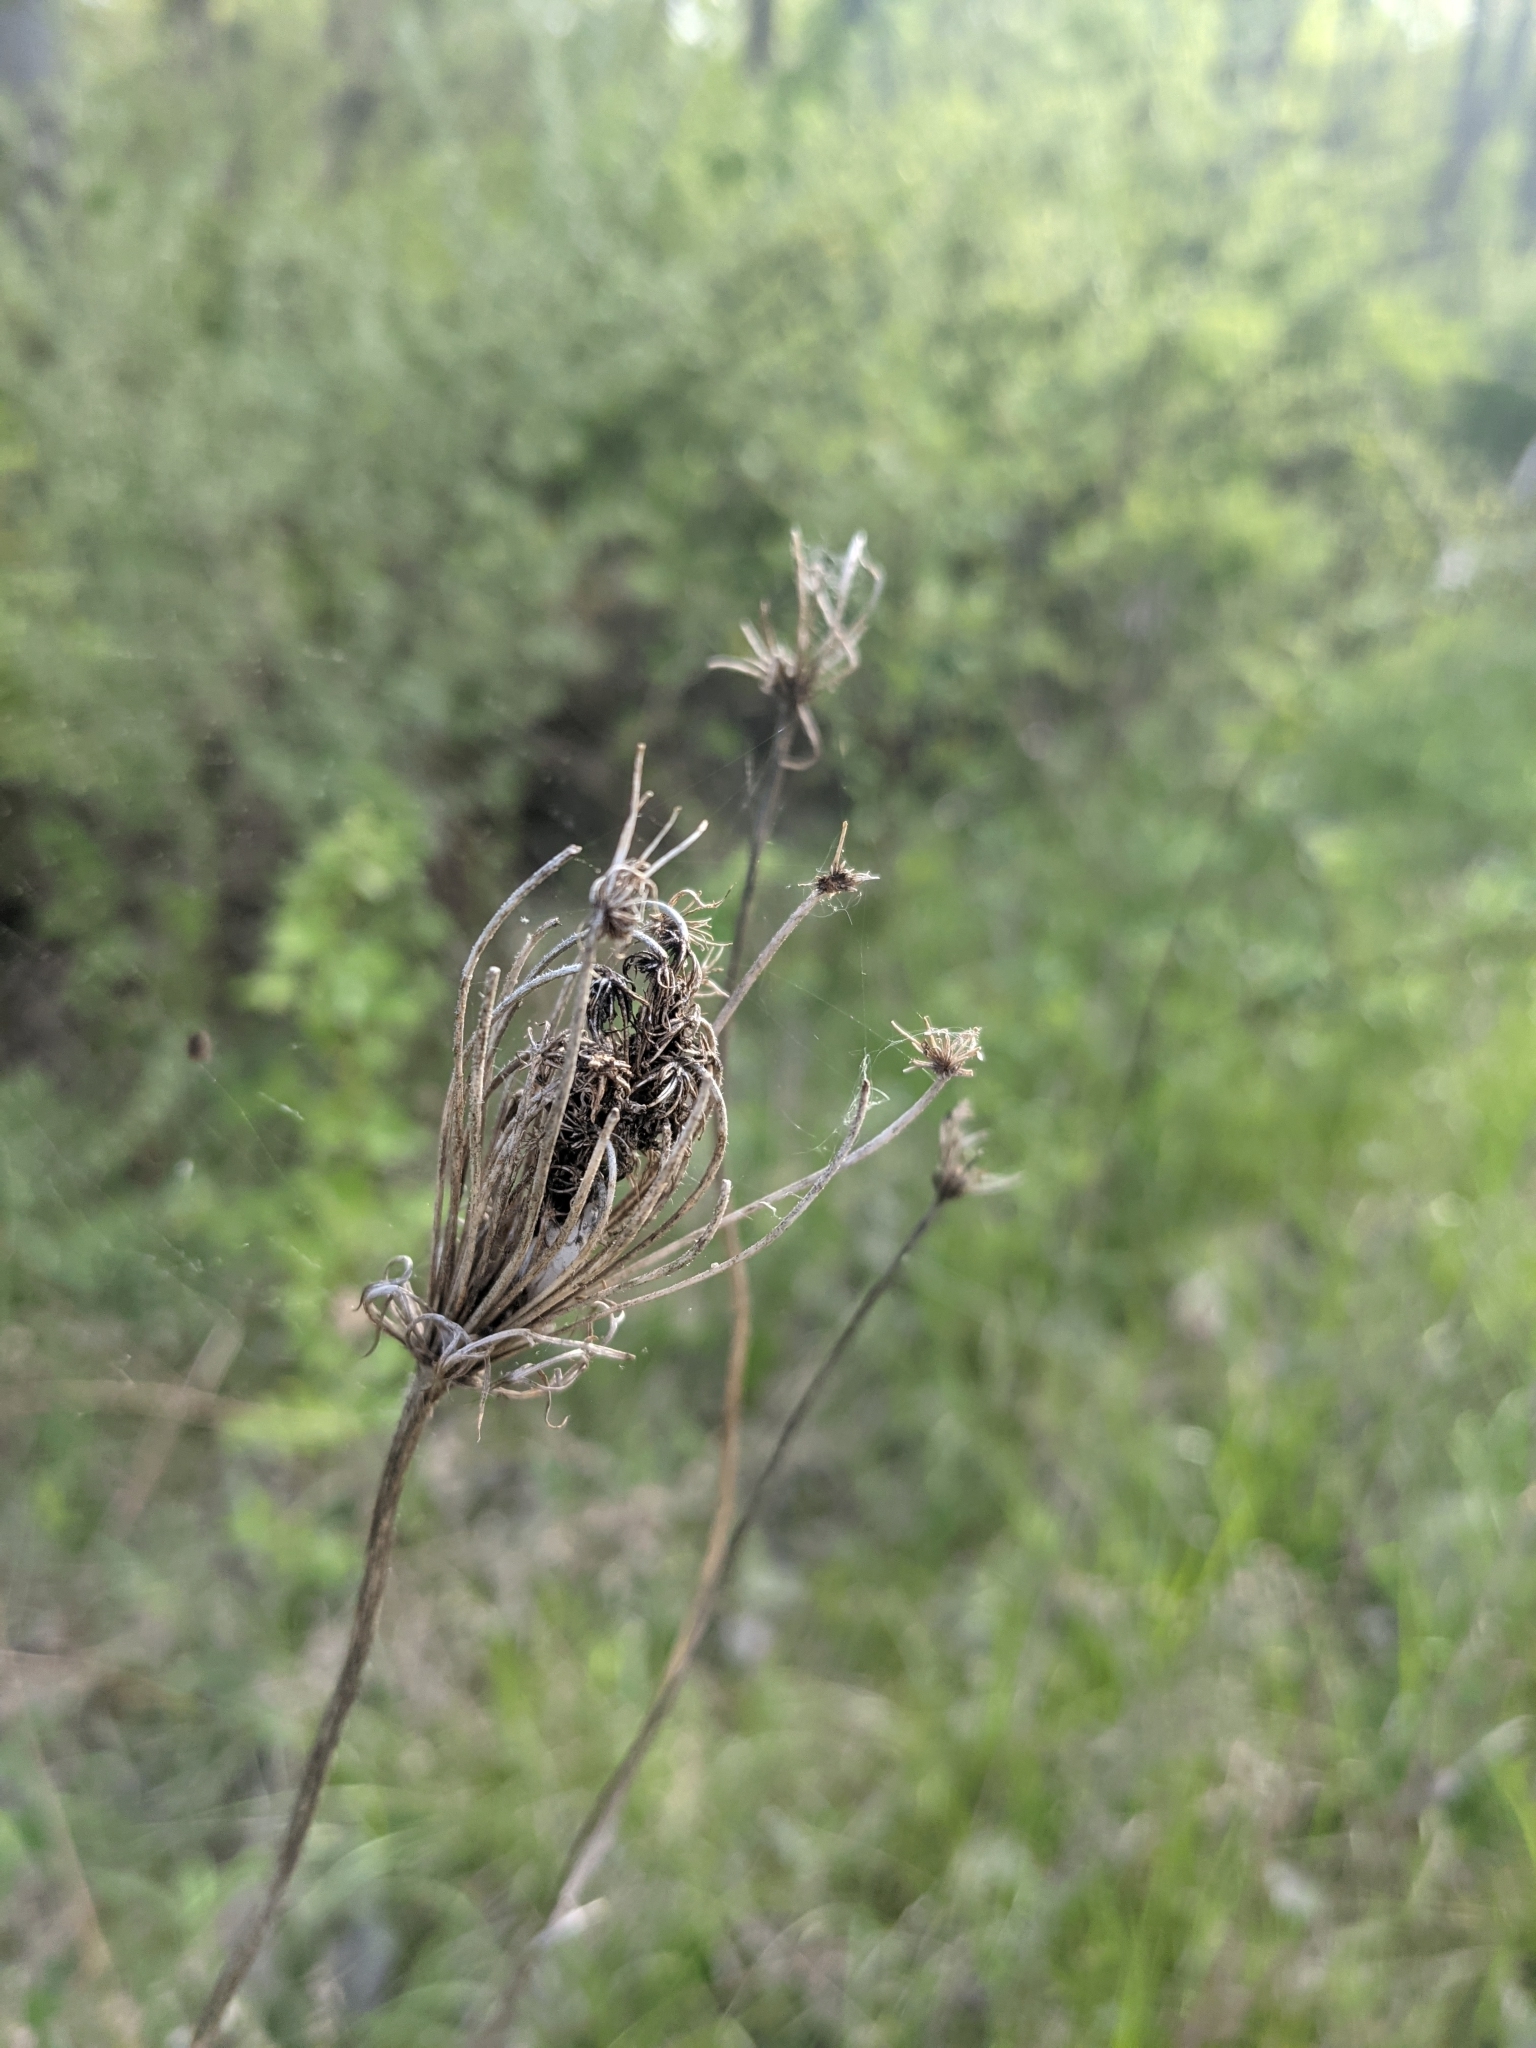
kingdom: Plantae
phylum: Tracheophyta
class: Magnoliopsida
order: Apiales
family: Apiaceae
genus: Daucus
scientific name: Daucus carota
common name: Wild carrot
